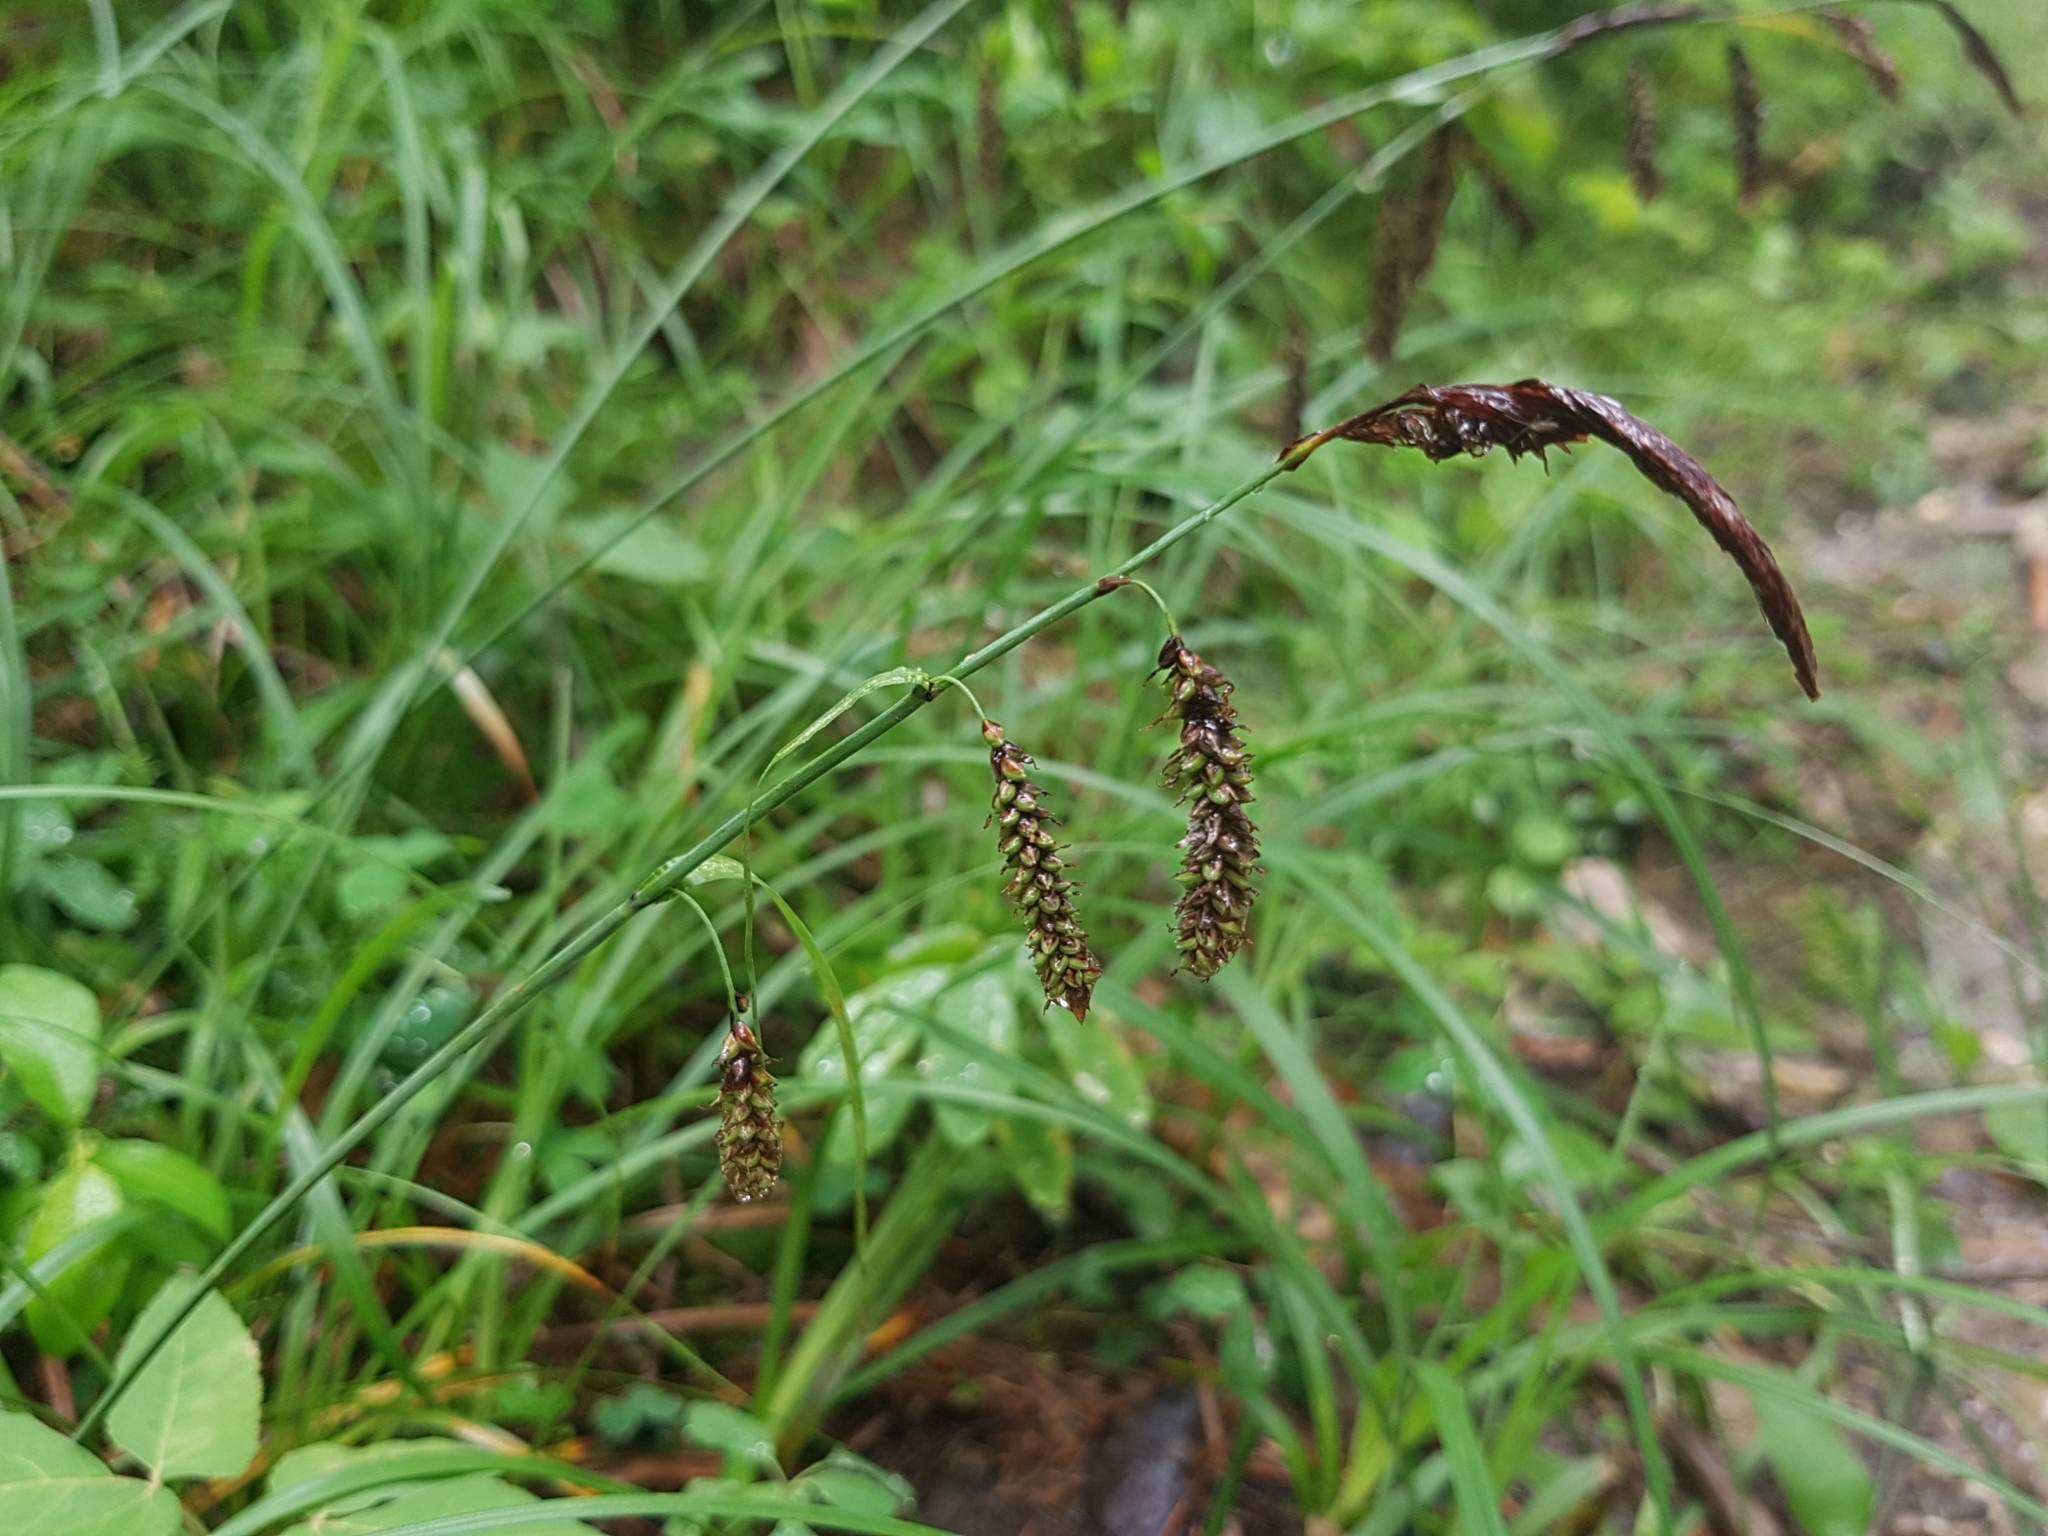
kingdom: Plantae
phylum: Tracheophyta
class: Liliopsida
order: Poales
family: Cyperaceae
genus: Carex
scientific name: Carex flacca
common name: Glaucous sedge
